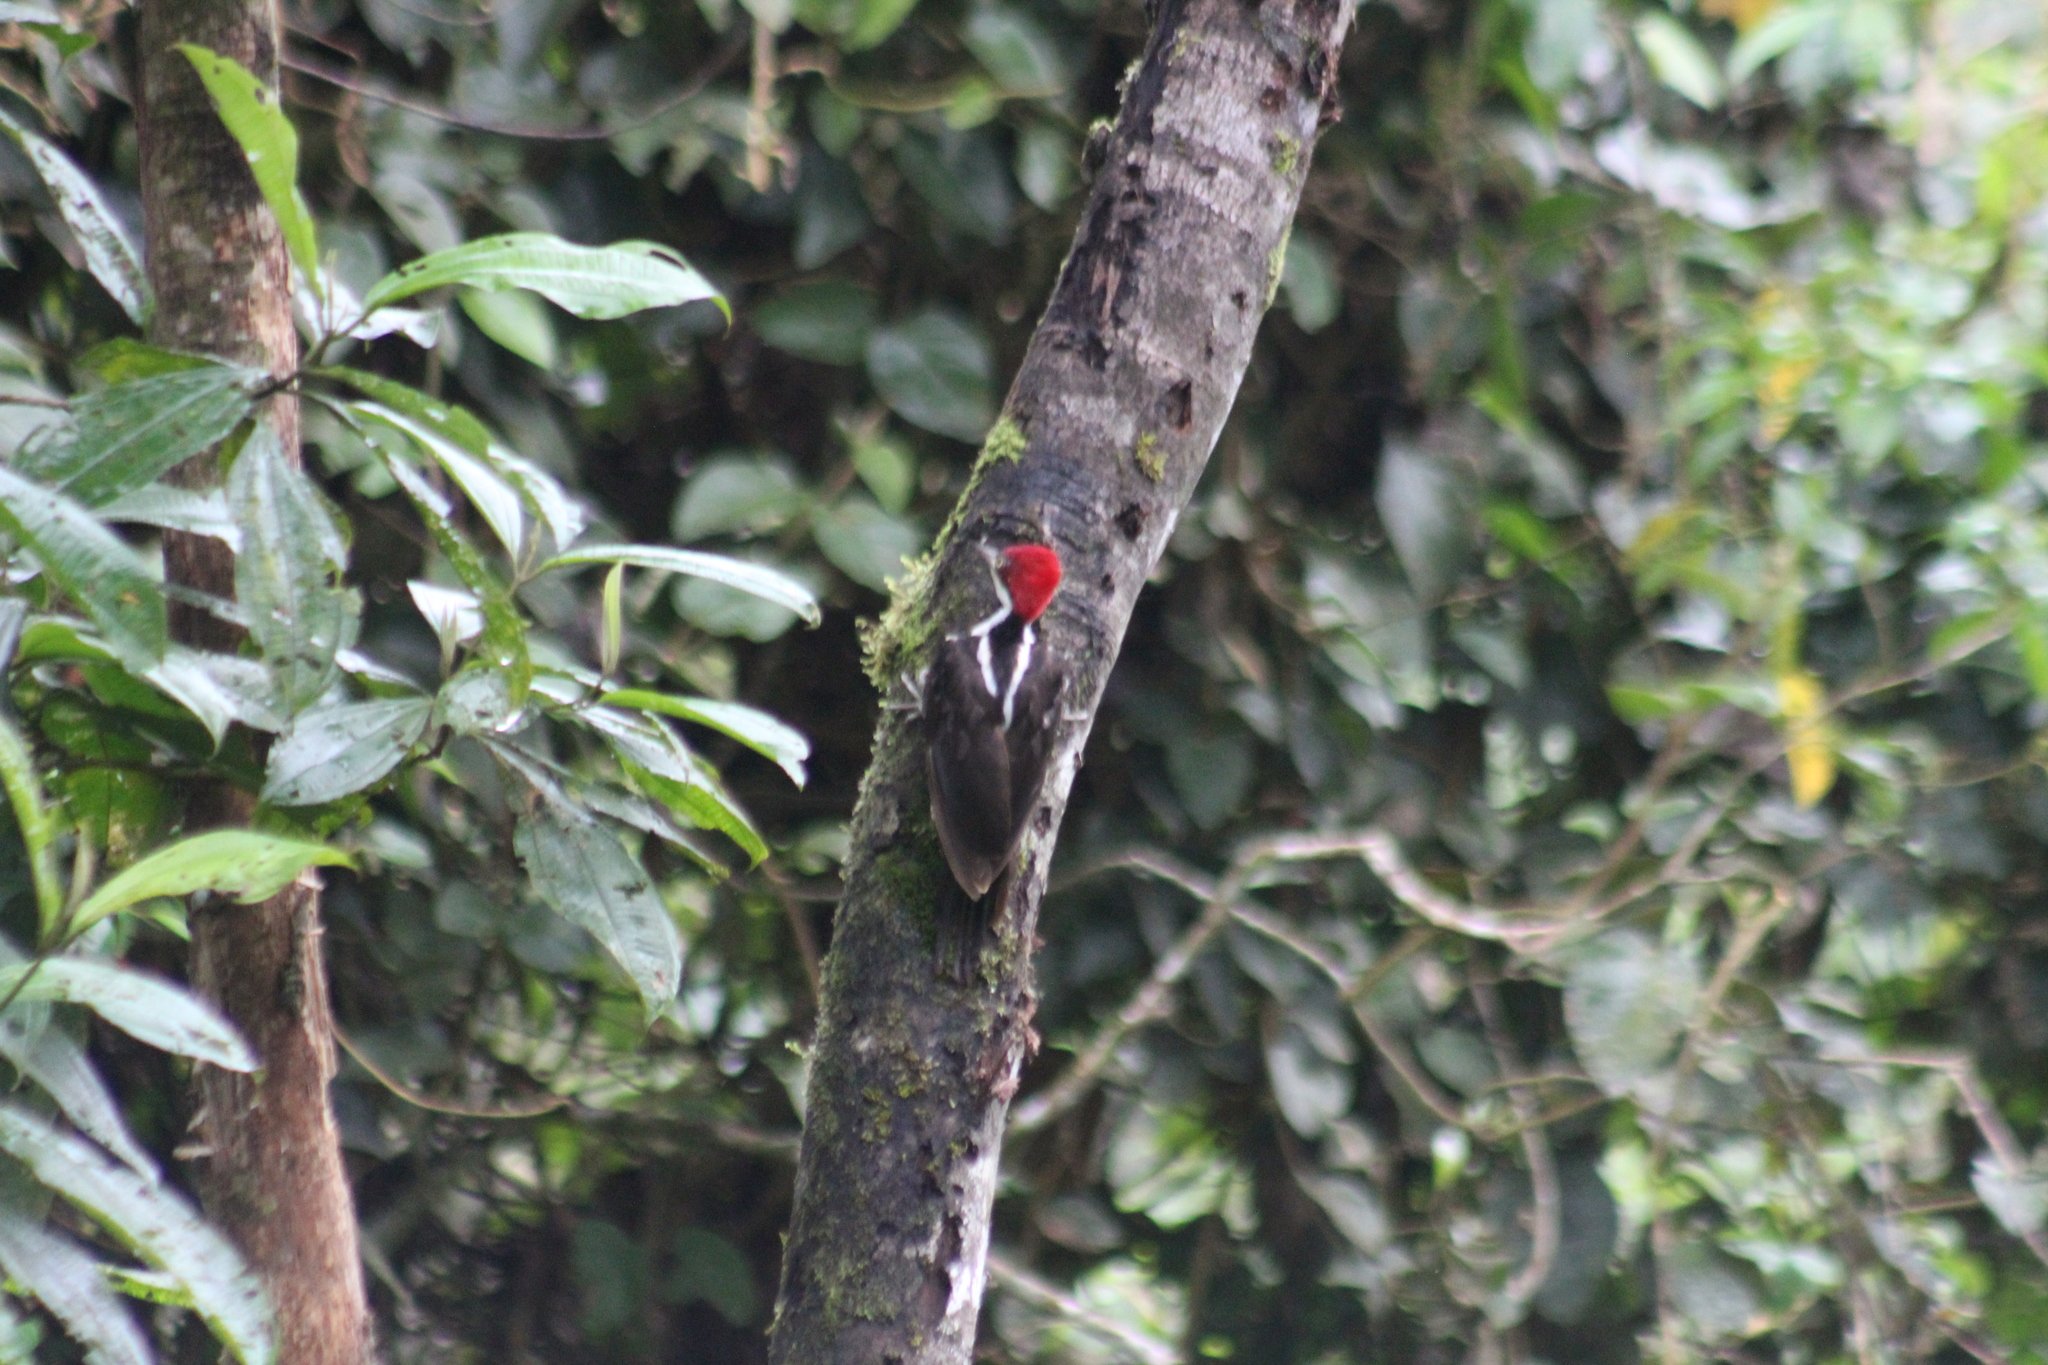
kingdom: Animalia
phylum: Chordata
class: Aves
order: Piciformes
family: Picidae
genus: Campephilus
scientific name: Campephilus gayaquilensis
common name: Guayaquil woodpecker
